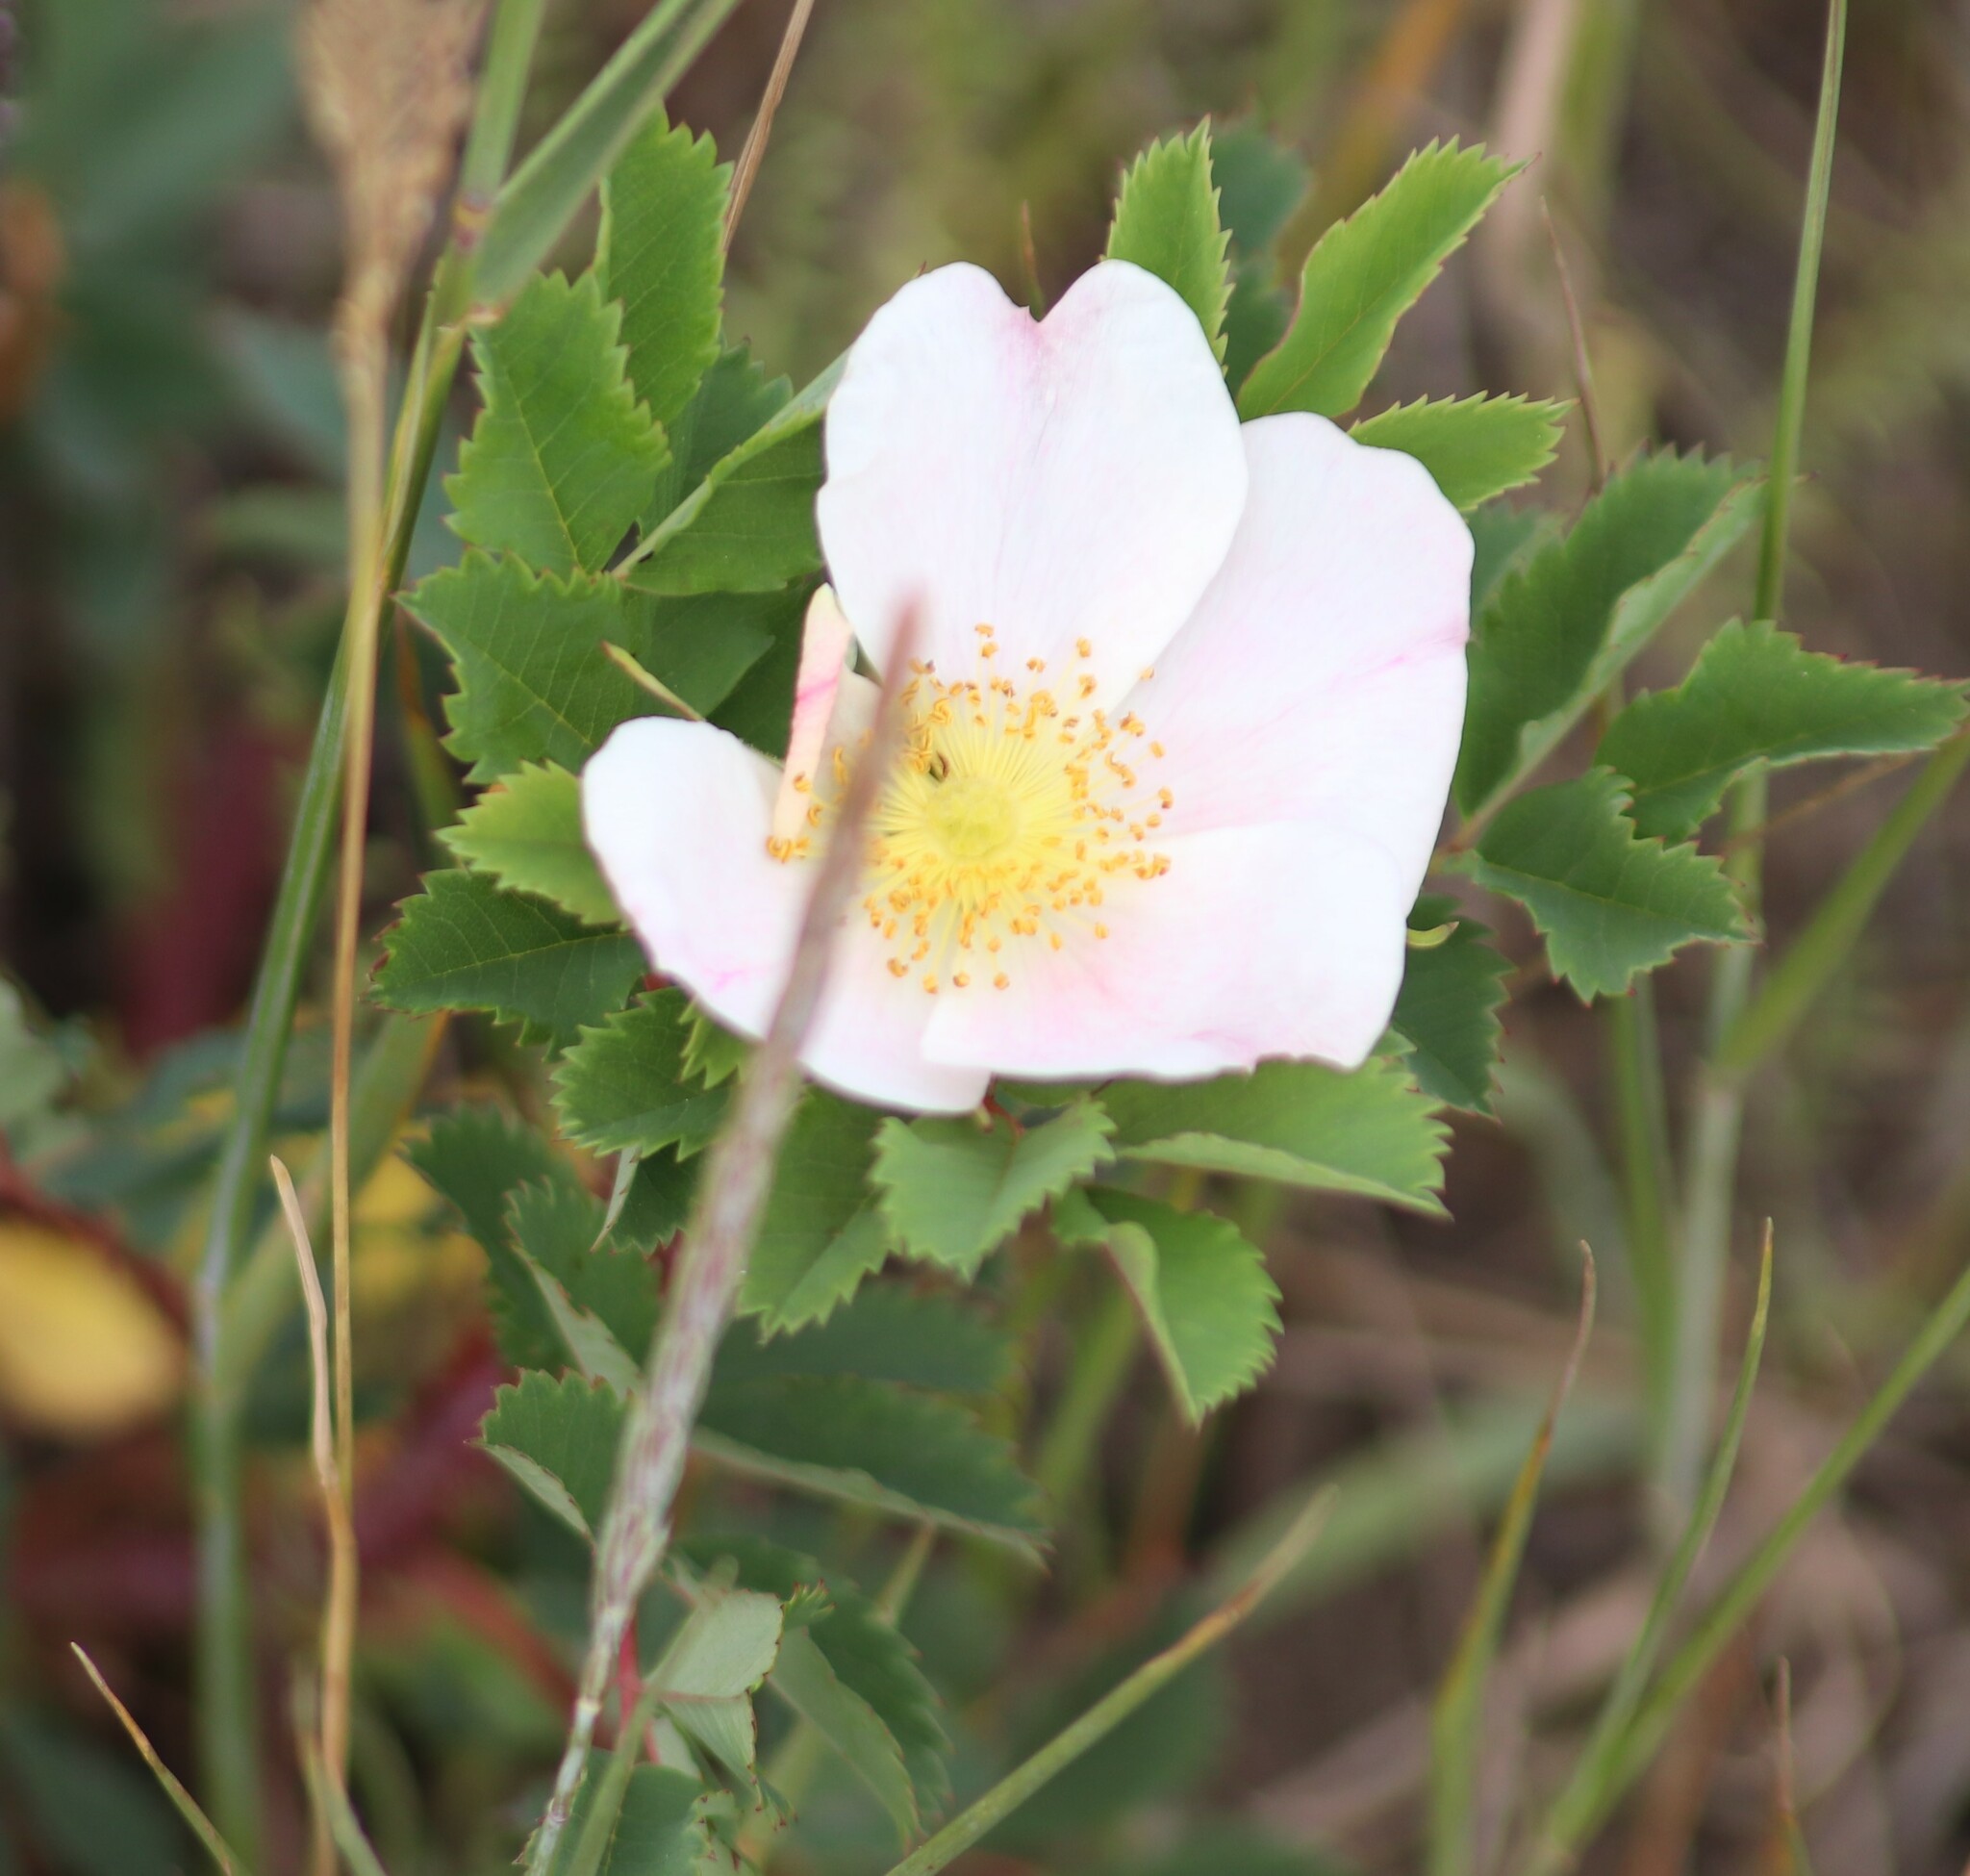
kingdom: Plantae
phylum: Tracheophyta
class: Magnoliopsida
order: Rosales
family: Rosaceae
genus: Rosa
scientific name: Rosa arkansana
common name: Prairie rose
